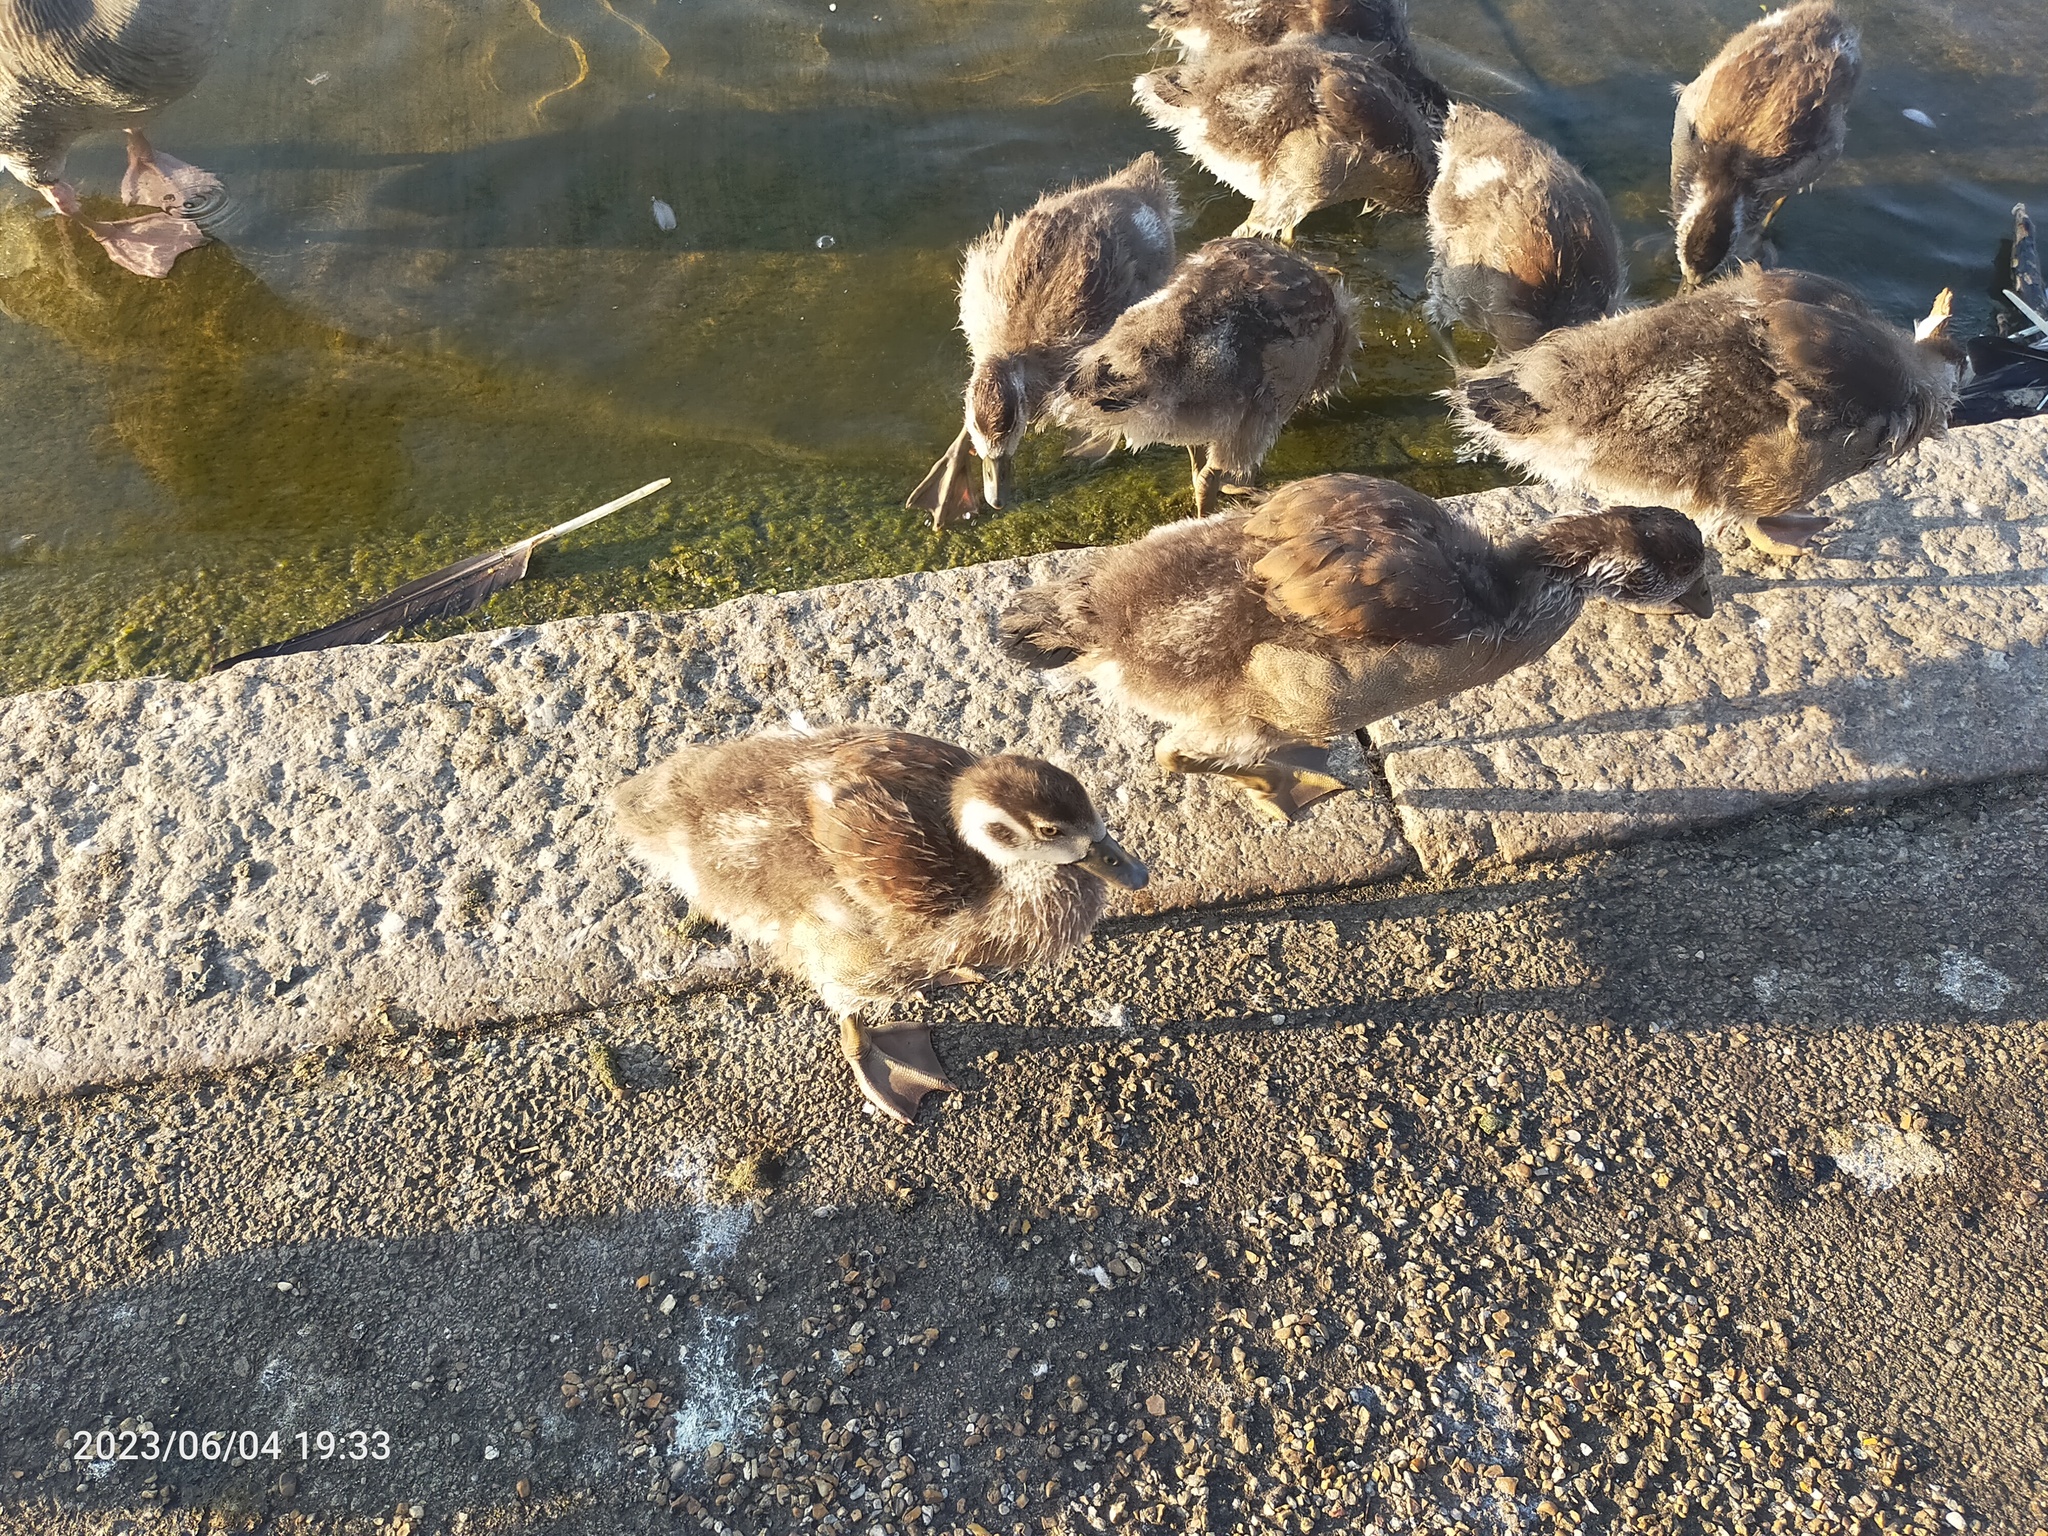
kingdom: Animalia
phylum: Chordata
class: Aves
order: Anseriformes
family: Anatidae
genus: Alopochen
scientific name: Alopochen aegyptiaca
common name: Egyptian goose
